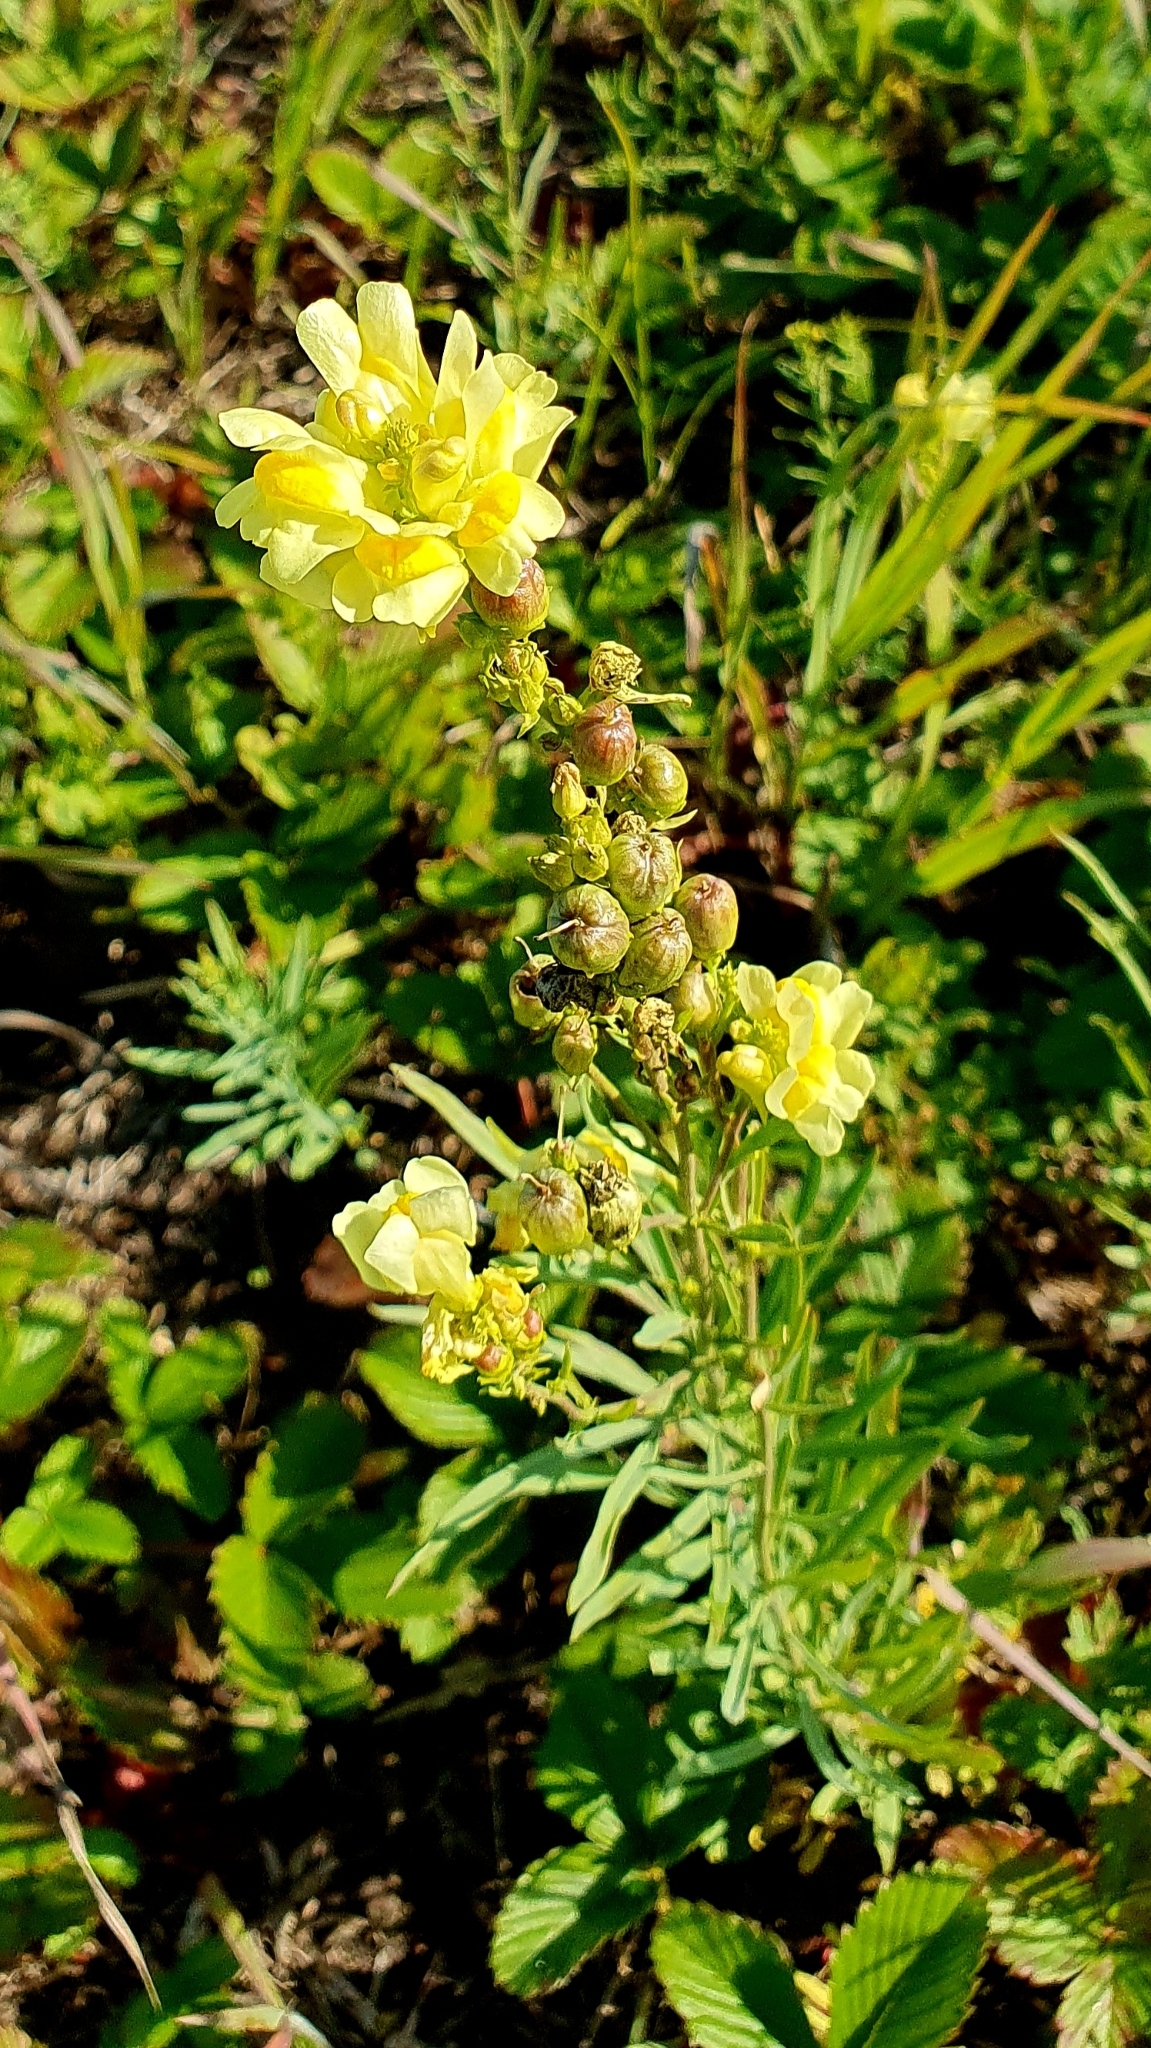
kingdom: Plantae
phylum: Tracheophyta
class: Magnoliopsida
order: Lamiales
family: Plantaginaceae
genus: Linaria
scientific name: Linaria vulgaris
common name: Butter and eggs
